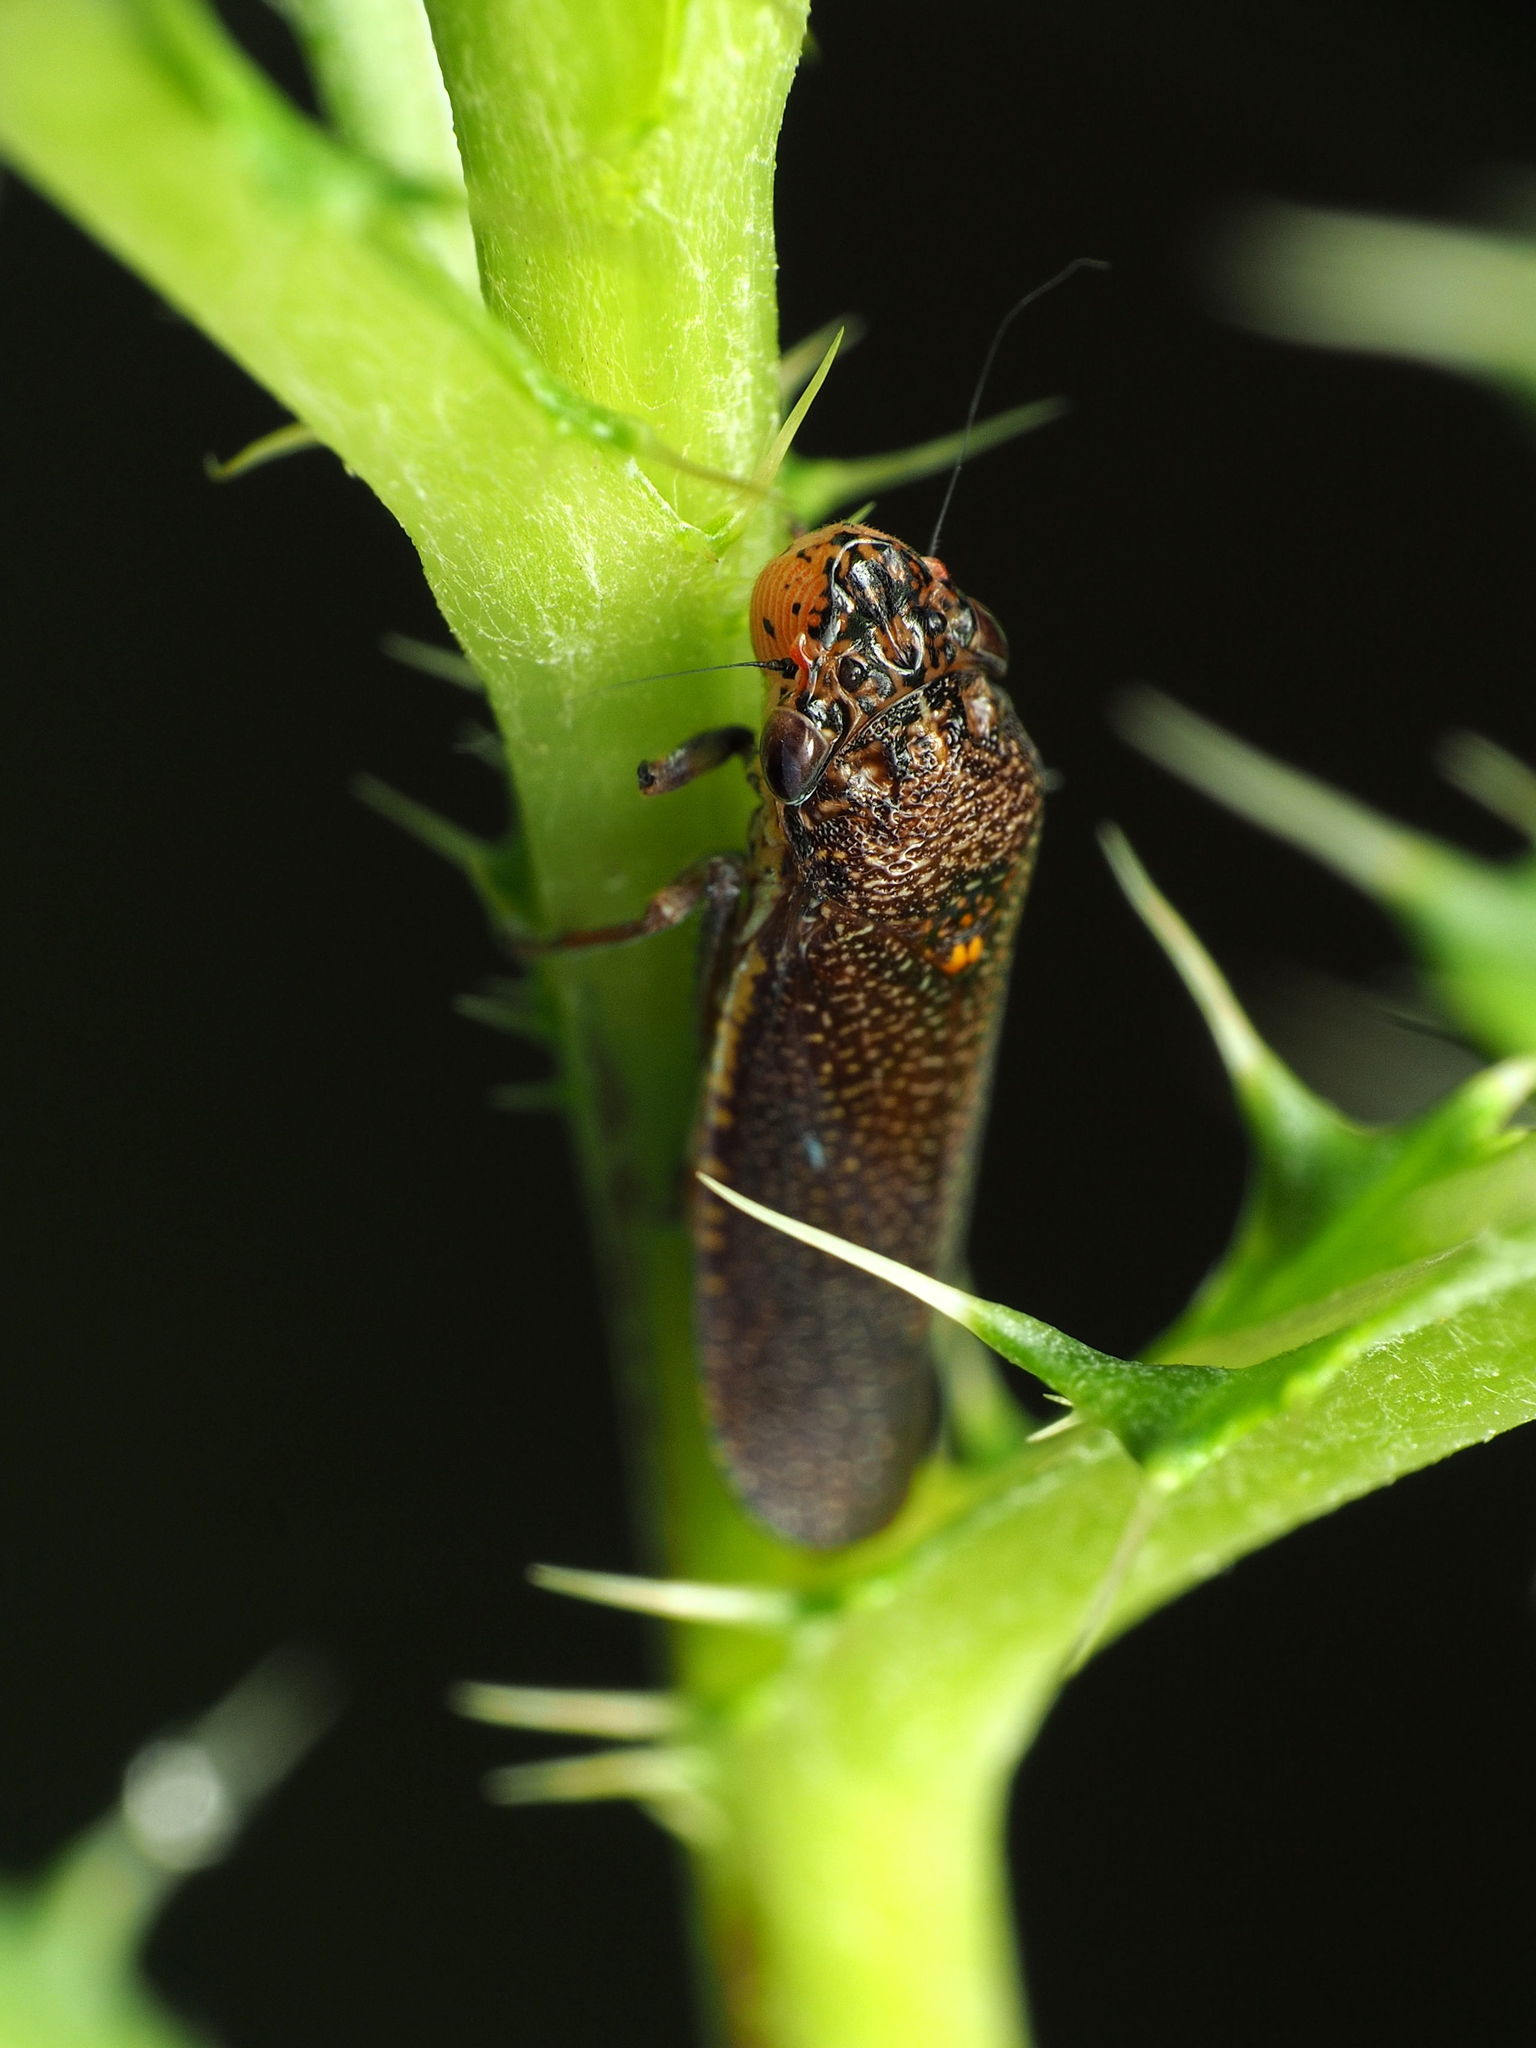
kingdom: Animalia
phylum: Arthropoda
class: Insecta
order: Hemiptera
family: Cicadellidae
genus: Paraulacizes
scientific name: Paraulacizes irrorata
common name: Speckled sharpshooter
